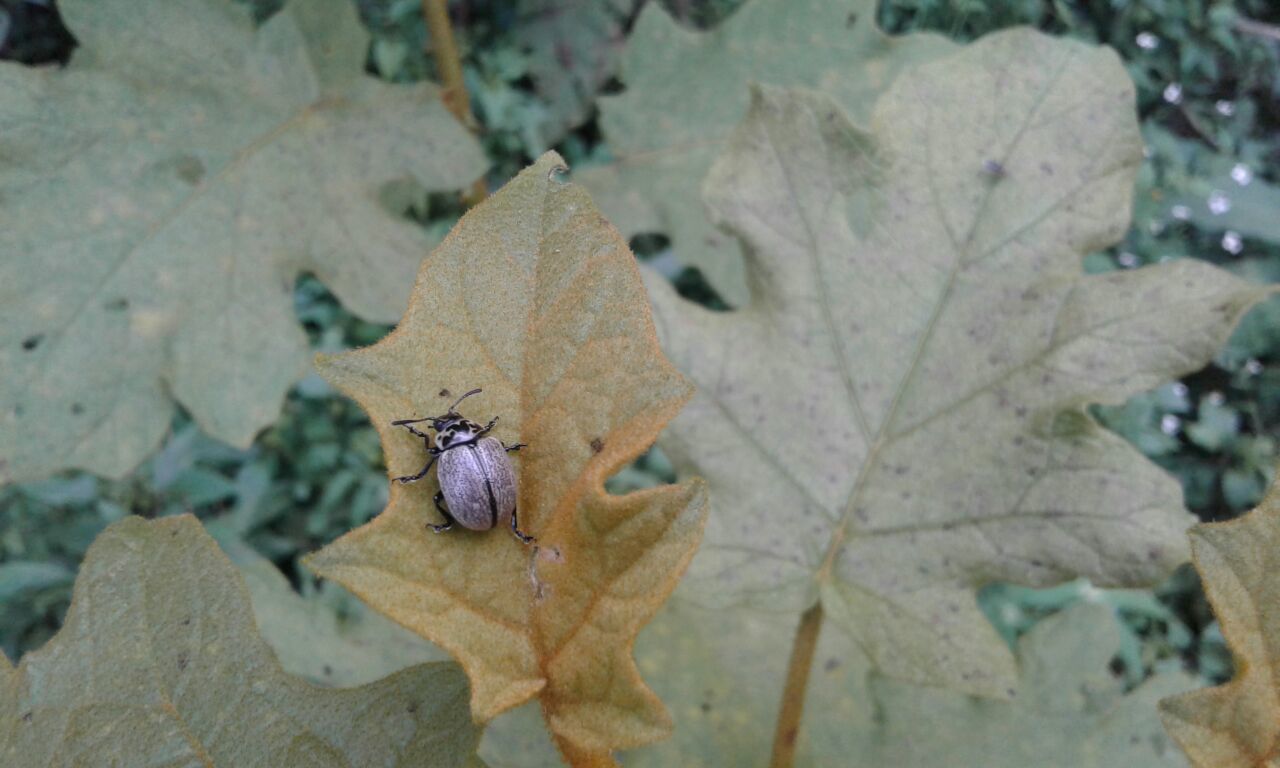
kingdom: Animalia
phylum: Arthropoda
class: Insecta
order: Coleoptera
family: Chrysomelidae
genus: Leptinotarsa
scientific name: Leptinotarsa
